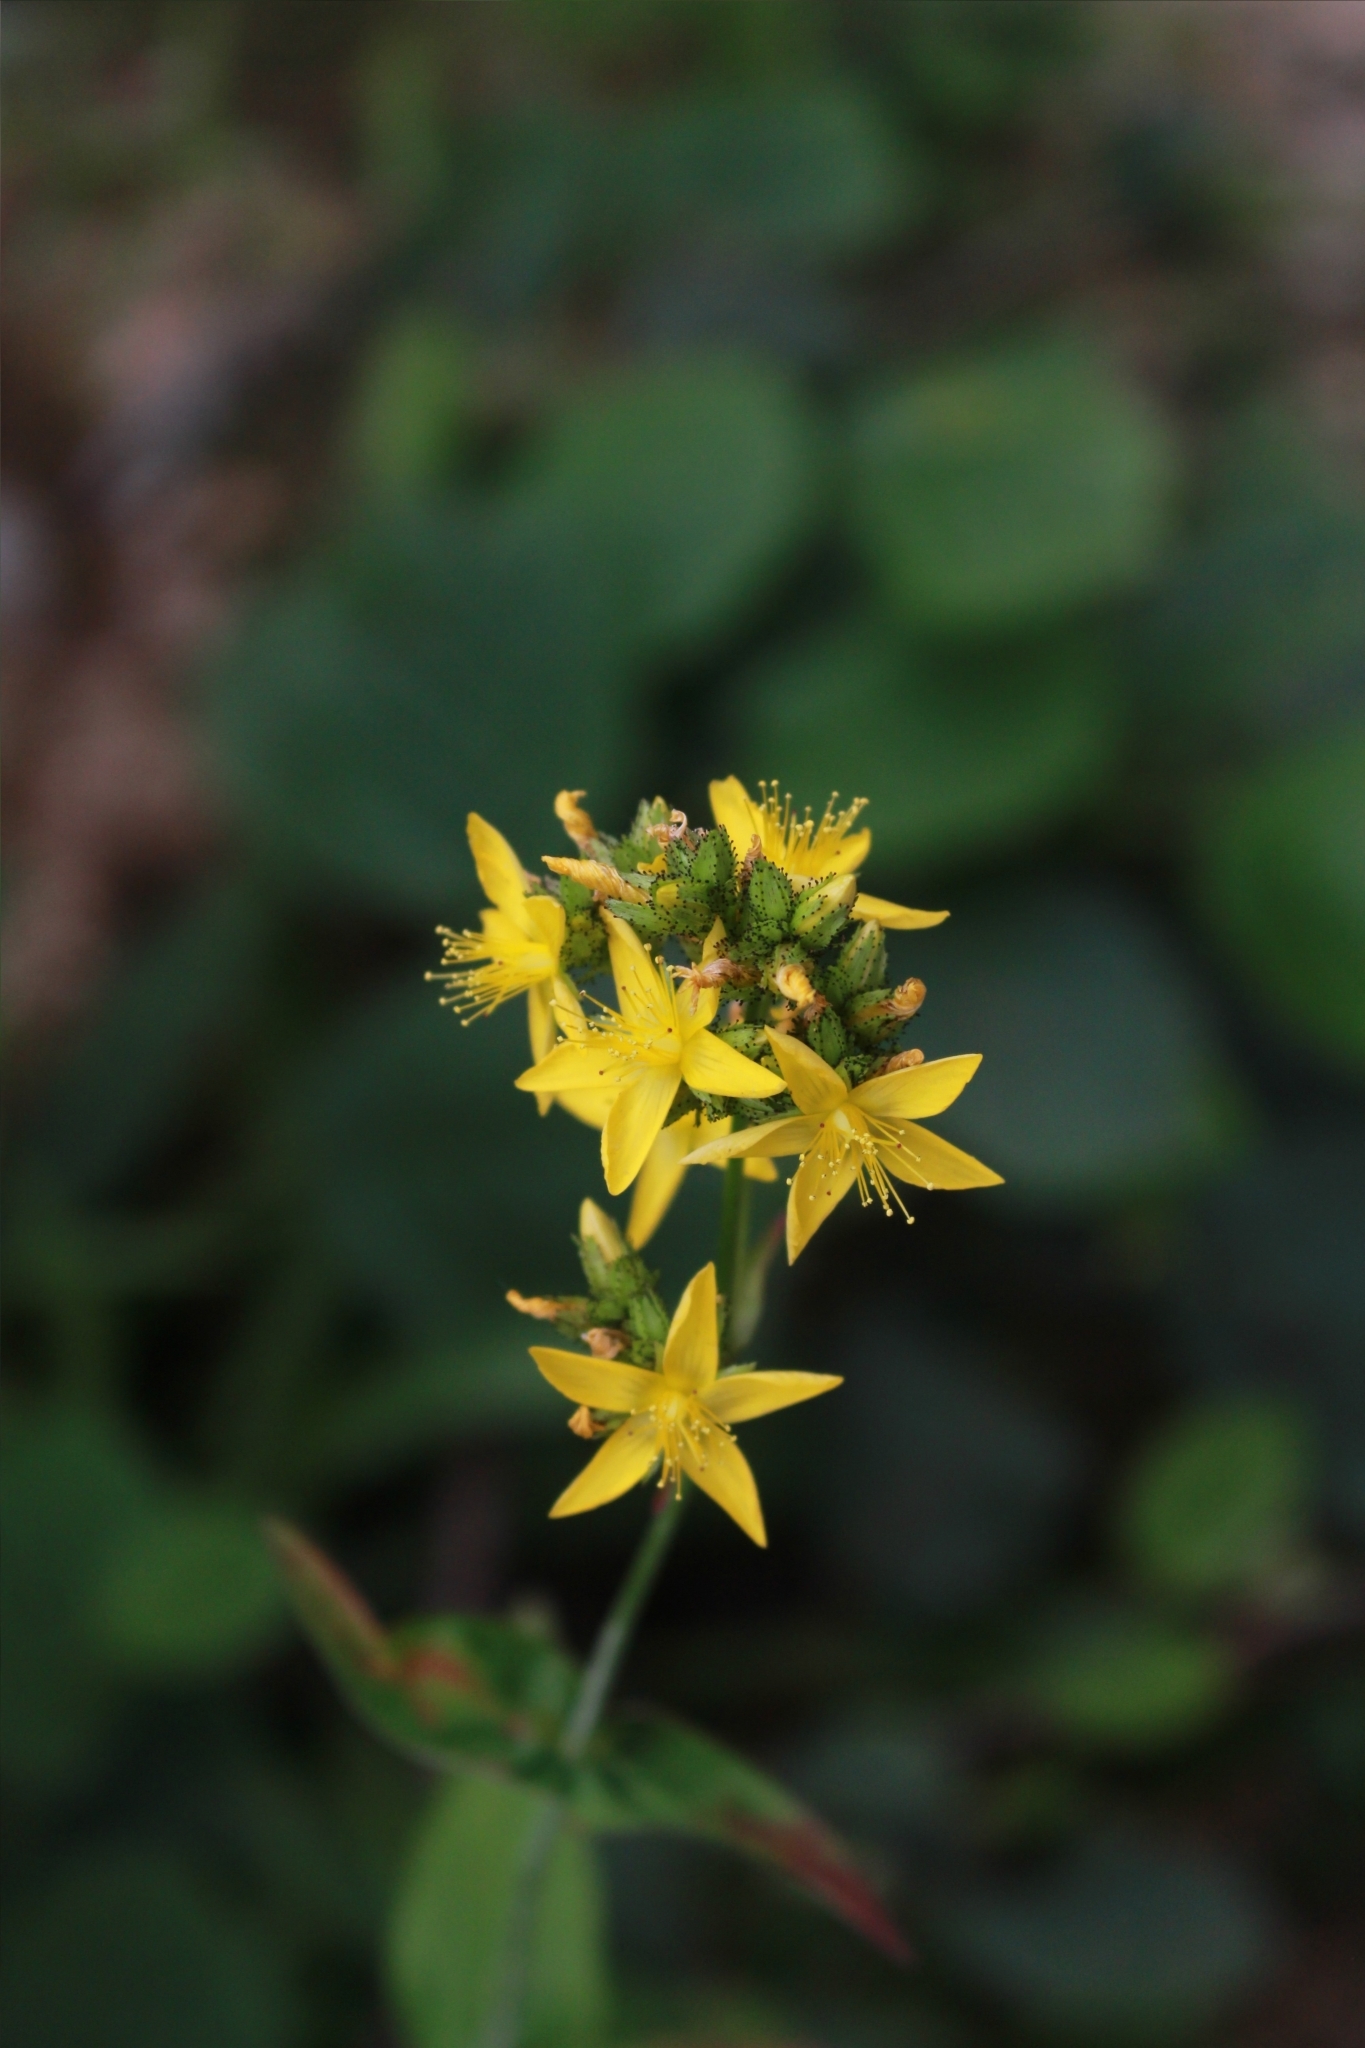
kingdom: Plantae
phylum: Tracheophyta
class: Magnoliopsida
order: Malpighiales
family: Hypericaceae
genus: Hypericum
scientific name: Hypericum montanum
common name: Pale st. john's-wort
